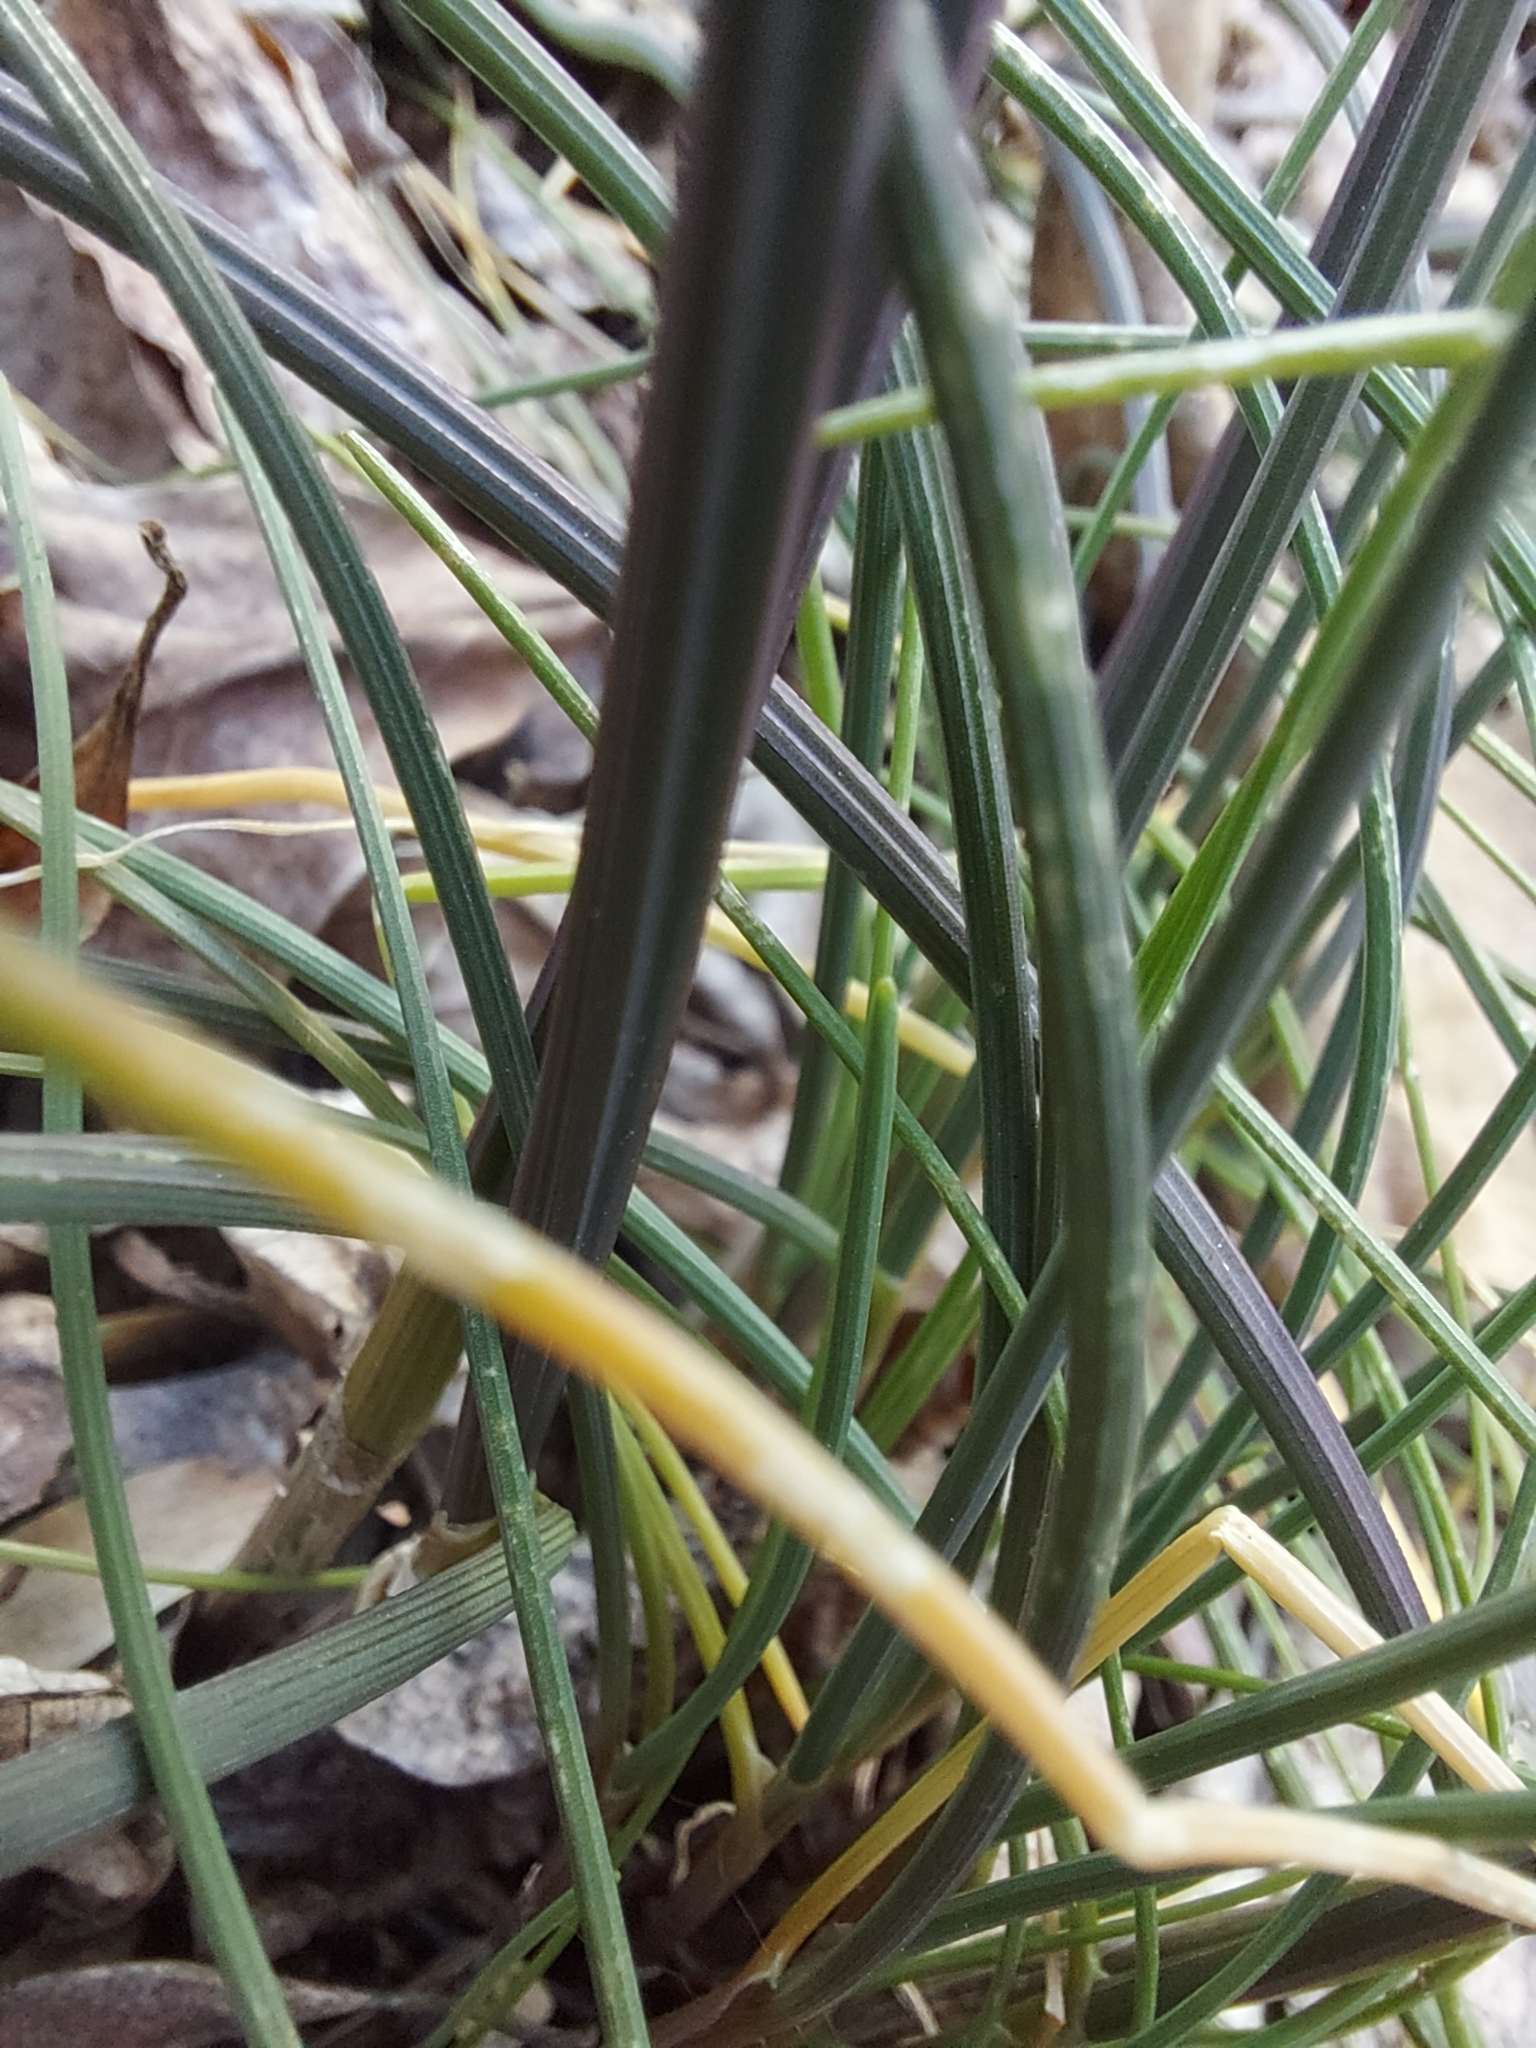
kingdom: Plantae
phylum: Tracheophyta
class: Liliopsida
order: Asparagales
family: Amaryllidaceae
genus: Allium
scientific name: Allium vineale
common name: Crow garlic
